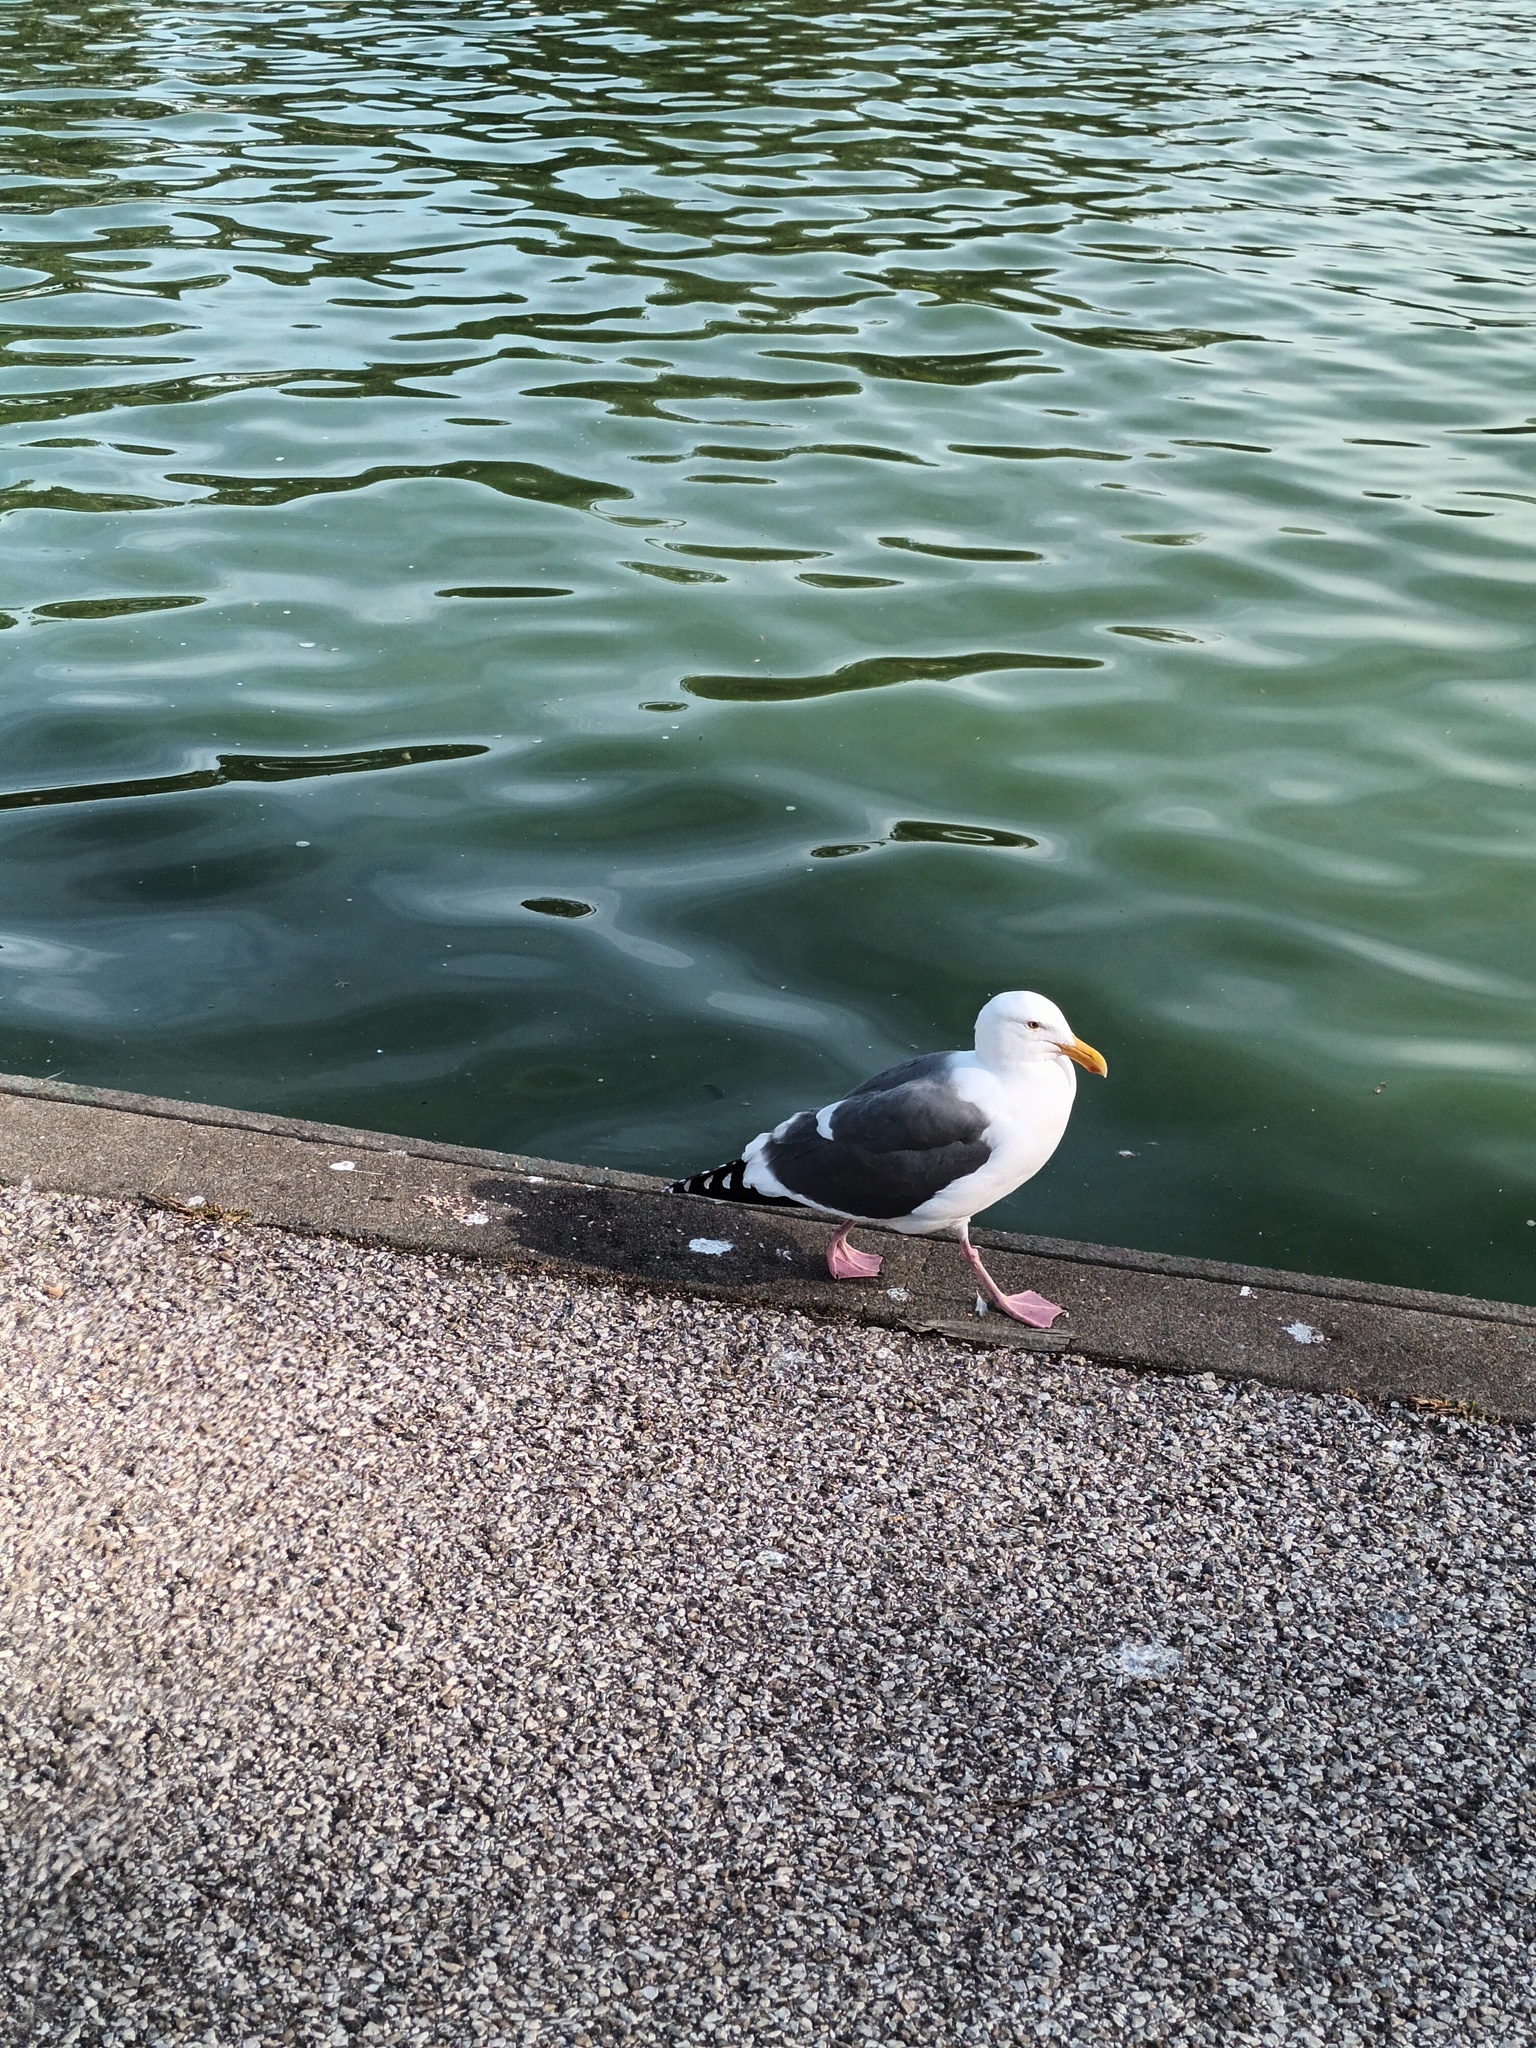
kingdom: Animalia
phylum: Chordata
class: Aves
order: Charadriiformes
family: Laridae
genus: Larus
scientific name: Larus occidentalis
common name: Western gull
